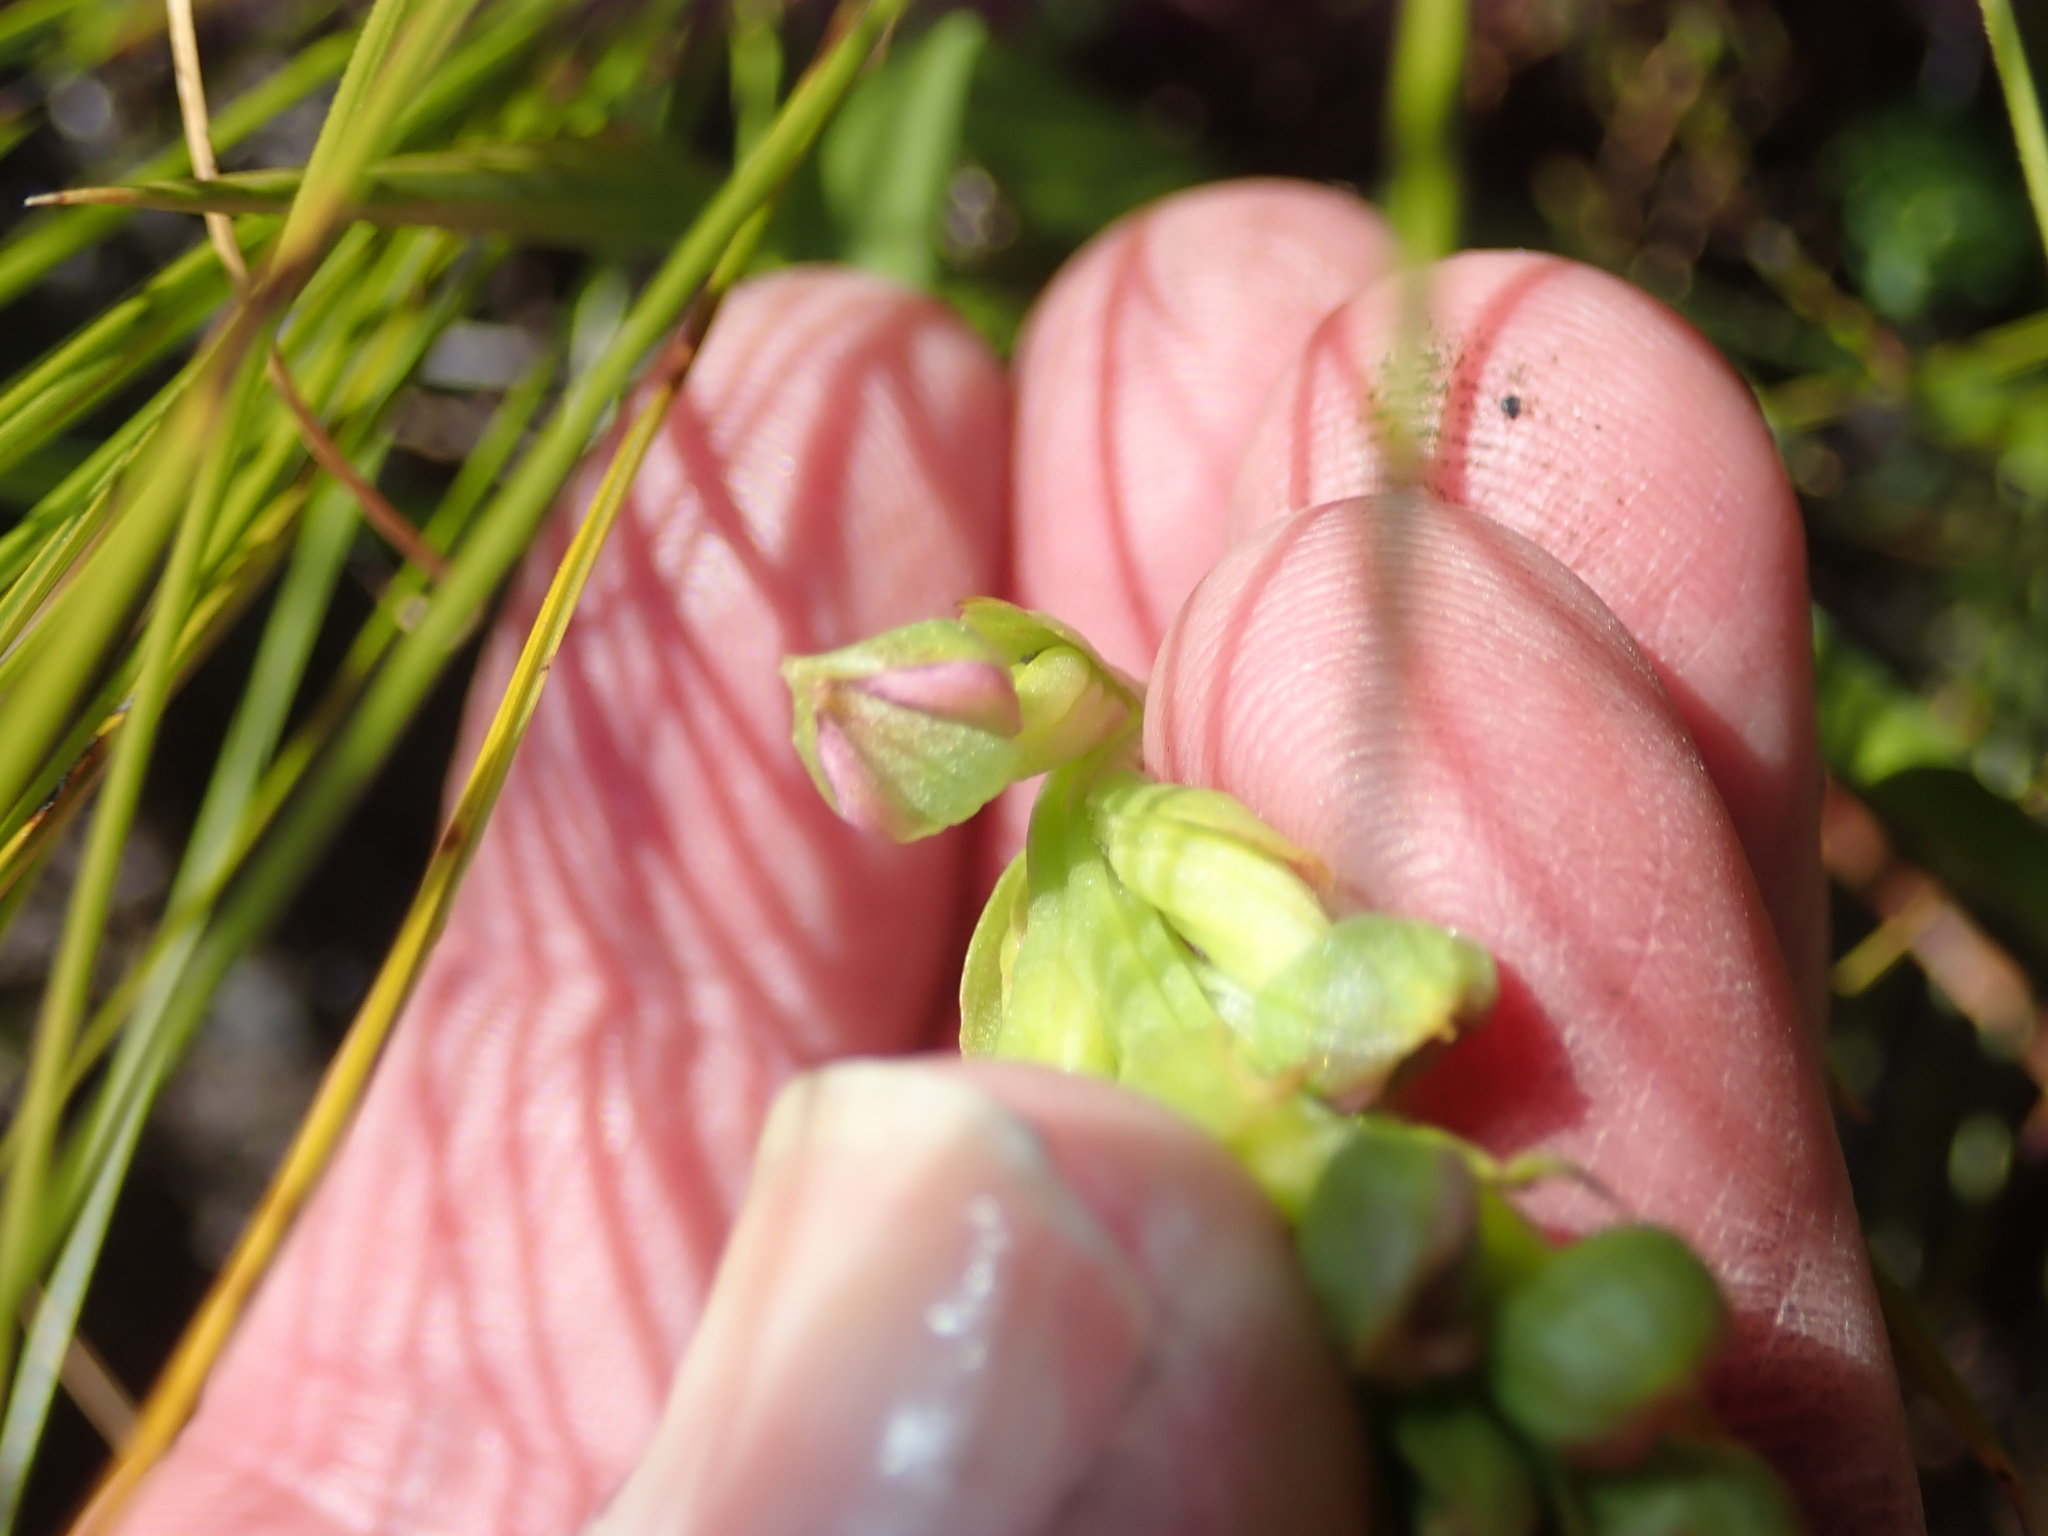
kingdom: Plantae
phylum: Tracheophyta
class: Liliopsida
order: Asparagales
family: Orchidaceae
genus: Evotella
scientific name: Evotella carnosa
